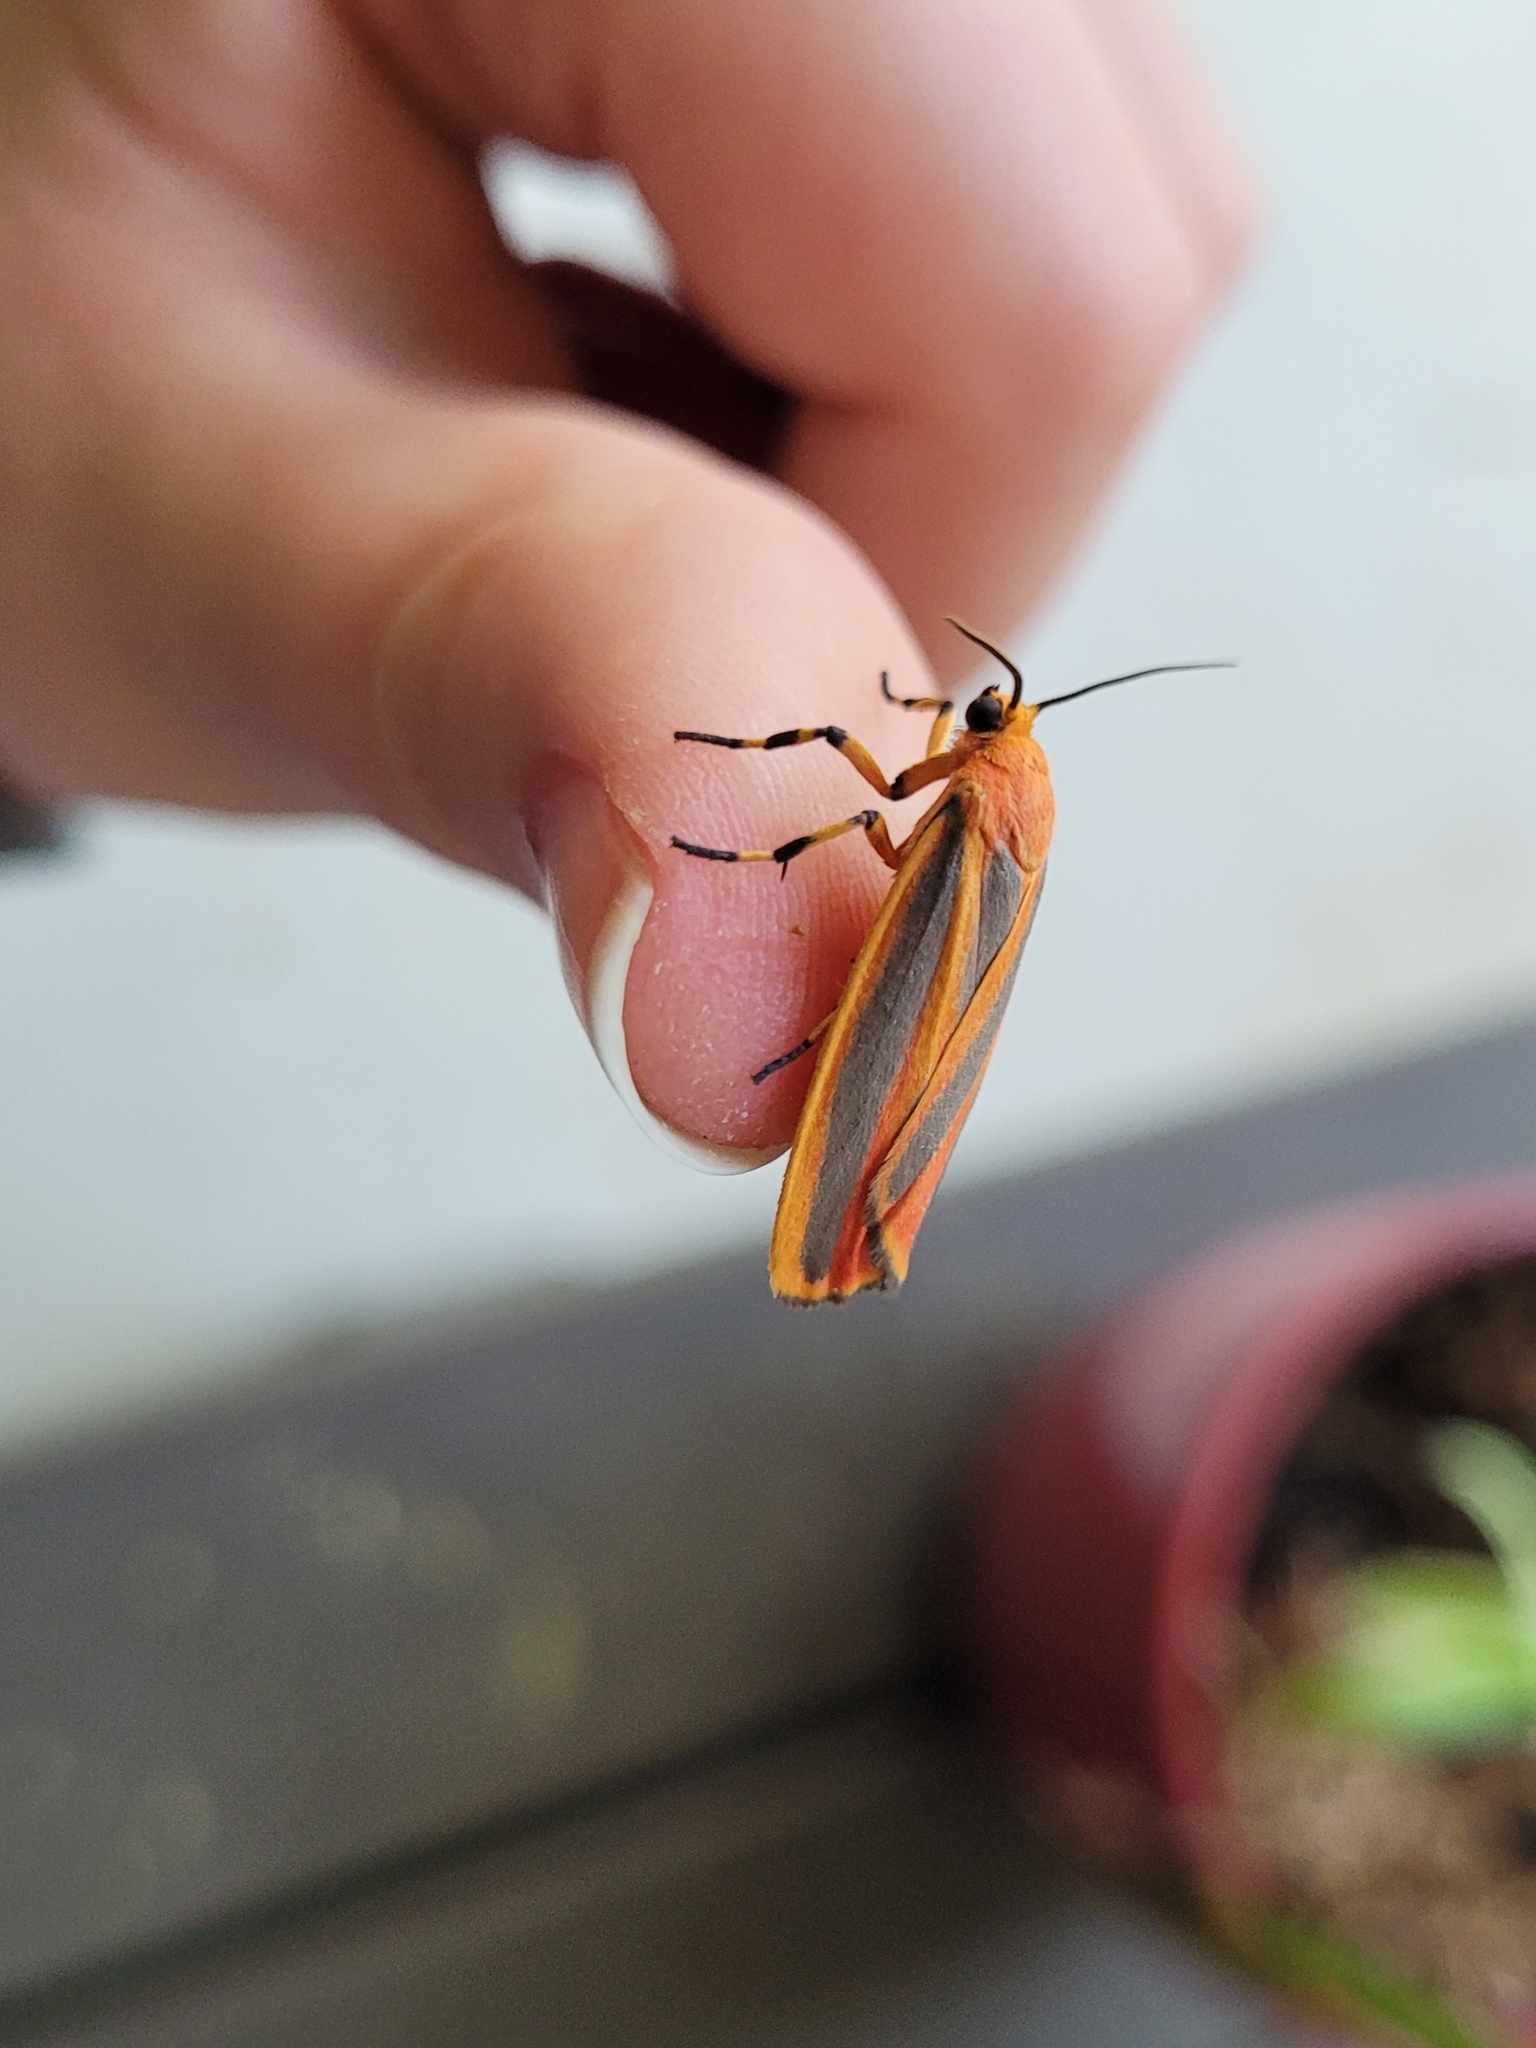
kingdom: Animalia
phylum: Arthropoda
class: Insecta
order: Lepidoptera
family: Erebidae
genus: Hypoprepia
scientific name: Hypoprepia fucosa
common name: Painted lichen moth
